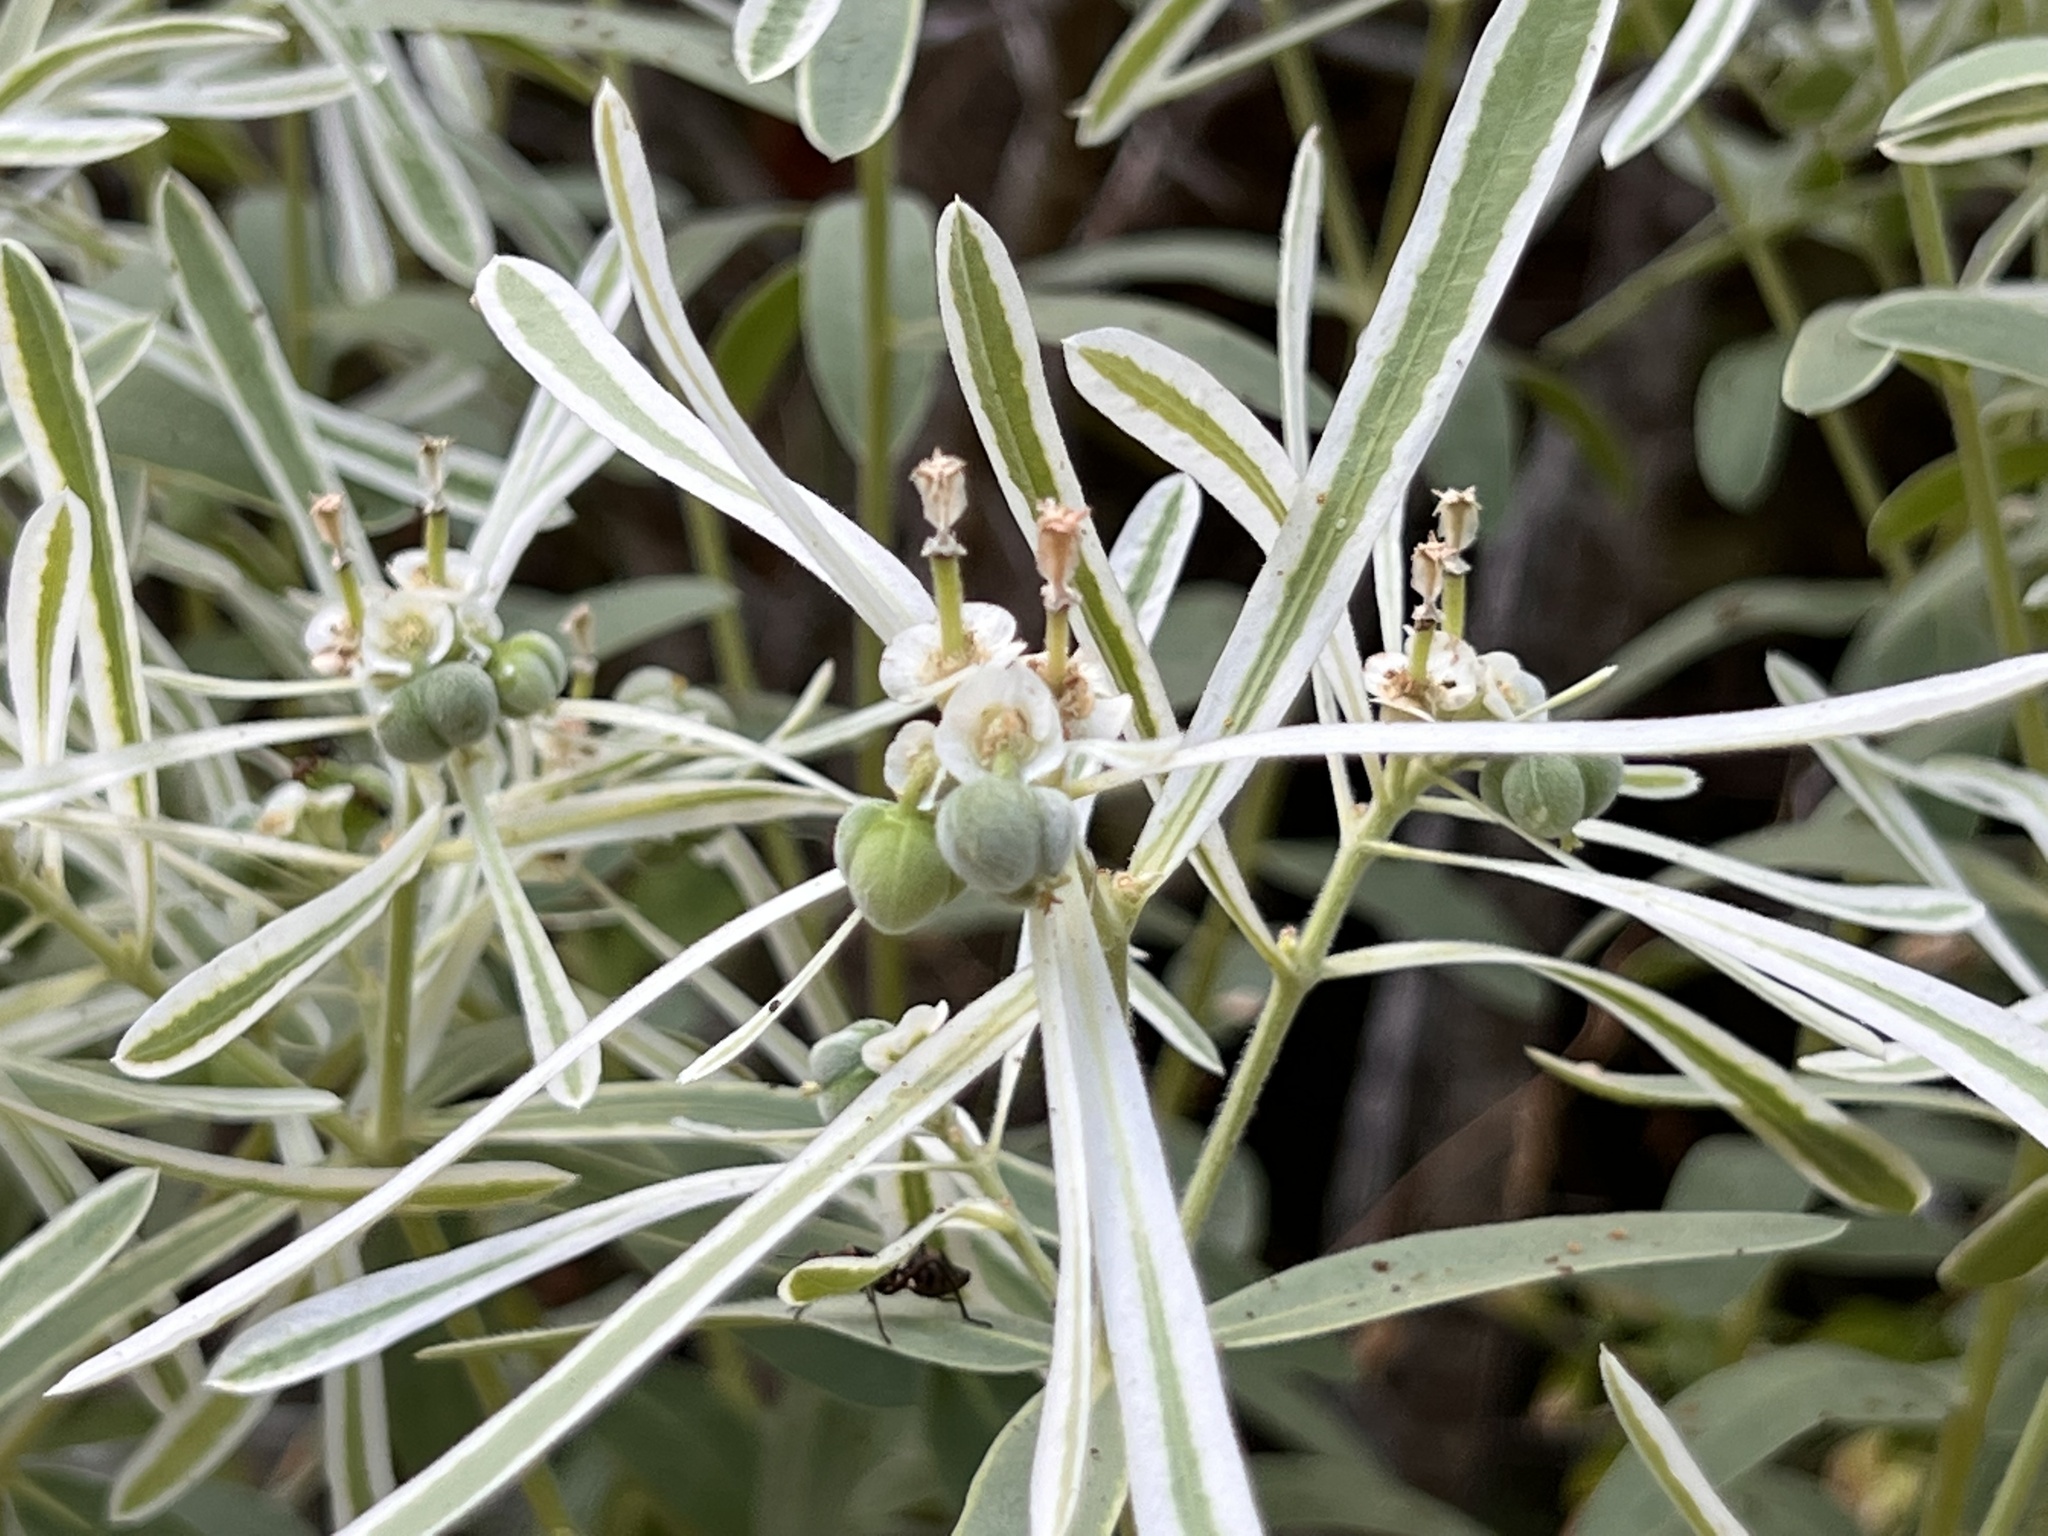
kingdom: Plantae
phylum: Tracheophyta
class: Magnoliopsida
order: Malpighiales
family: Euphorbiaceae
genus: Euphorbia
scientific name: Euphorbia bicolor
